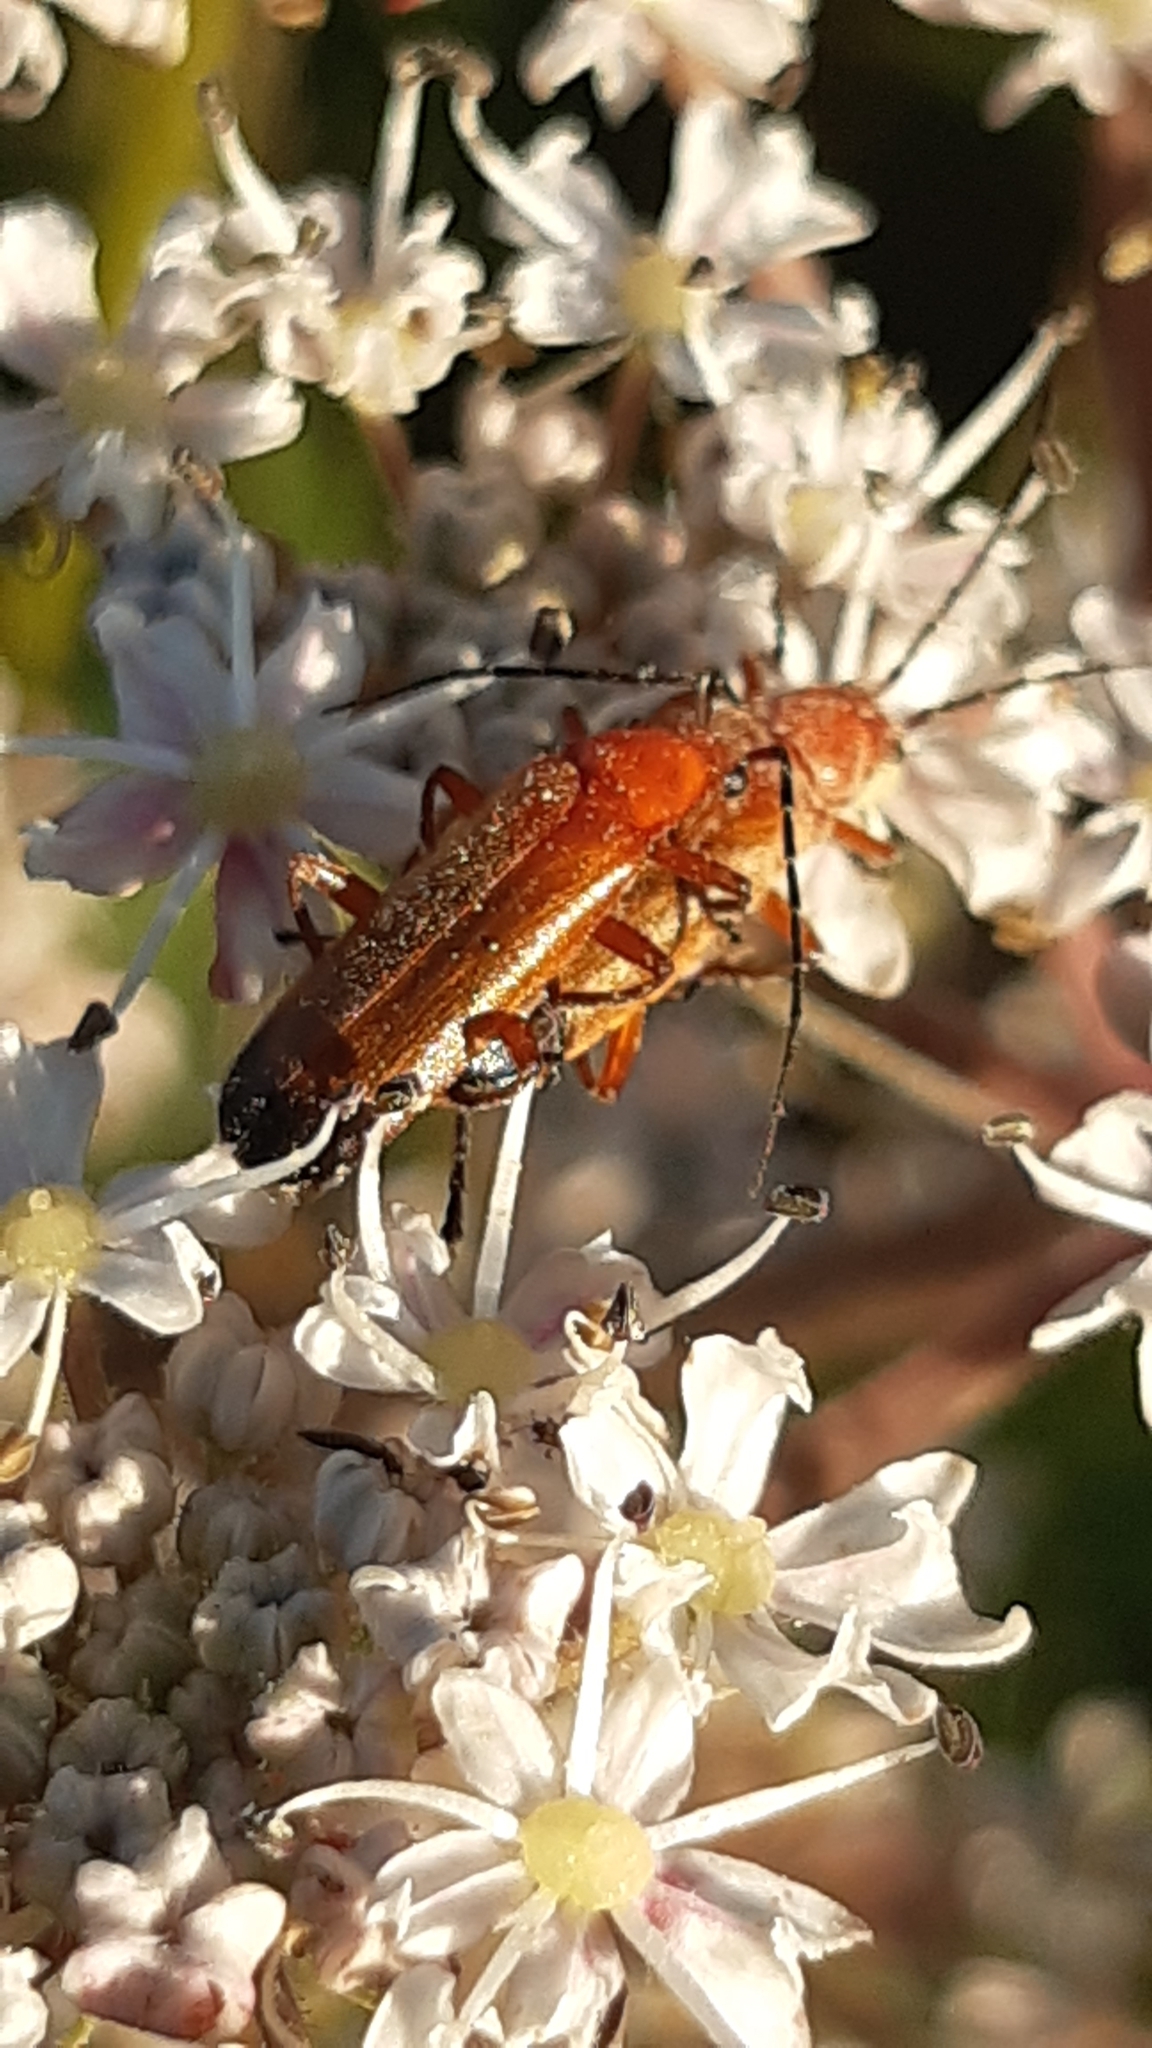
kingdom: Animalia
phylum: Arthropoda
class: Insecta
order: Coleoptera
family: Cantharidae
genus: Rhagonycha
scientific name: Rhagonycha fulva
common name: Common red soldier beetle
